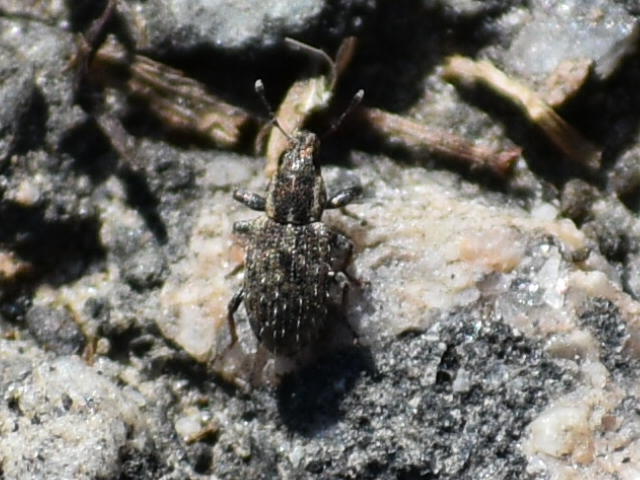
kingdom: Animalia
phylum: Arthropoda
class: Insecta
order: Coleoptera
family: Curculionidae
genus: Sitona
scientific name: Sitona hispidulus
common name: Clover weevil
